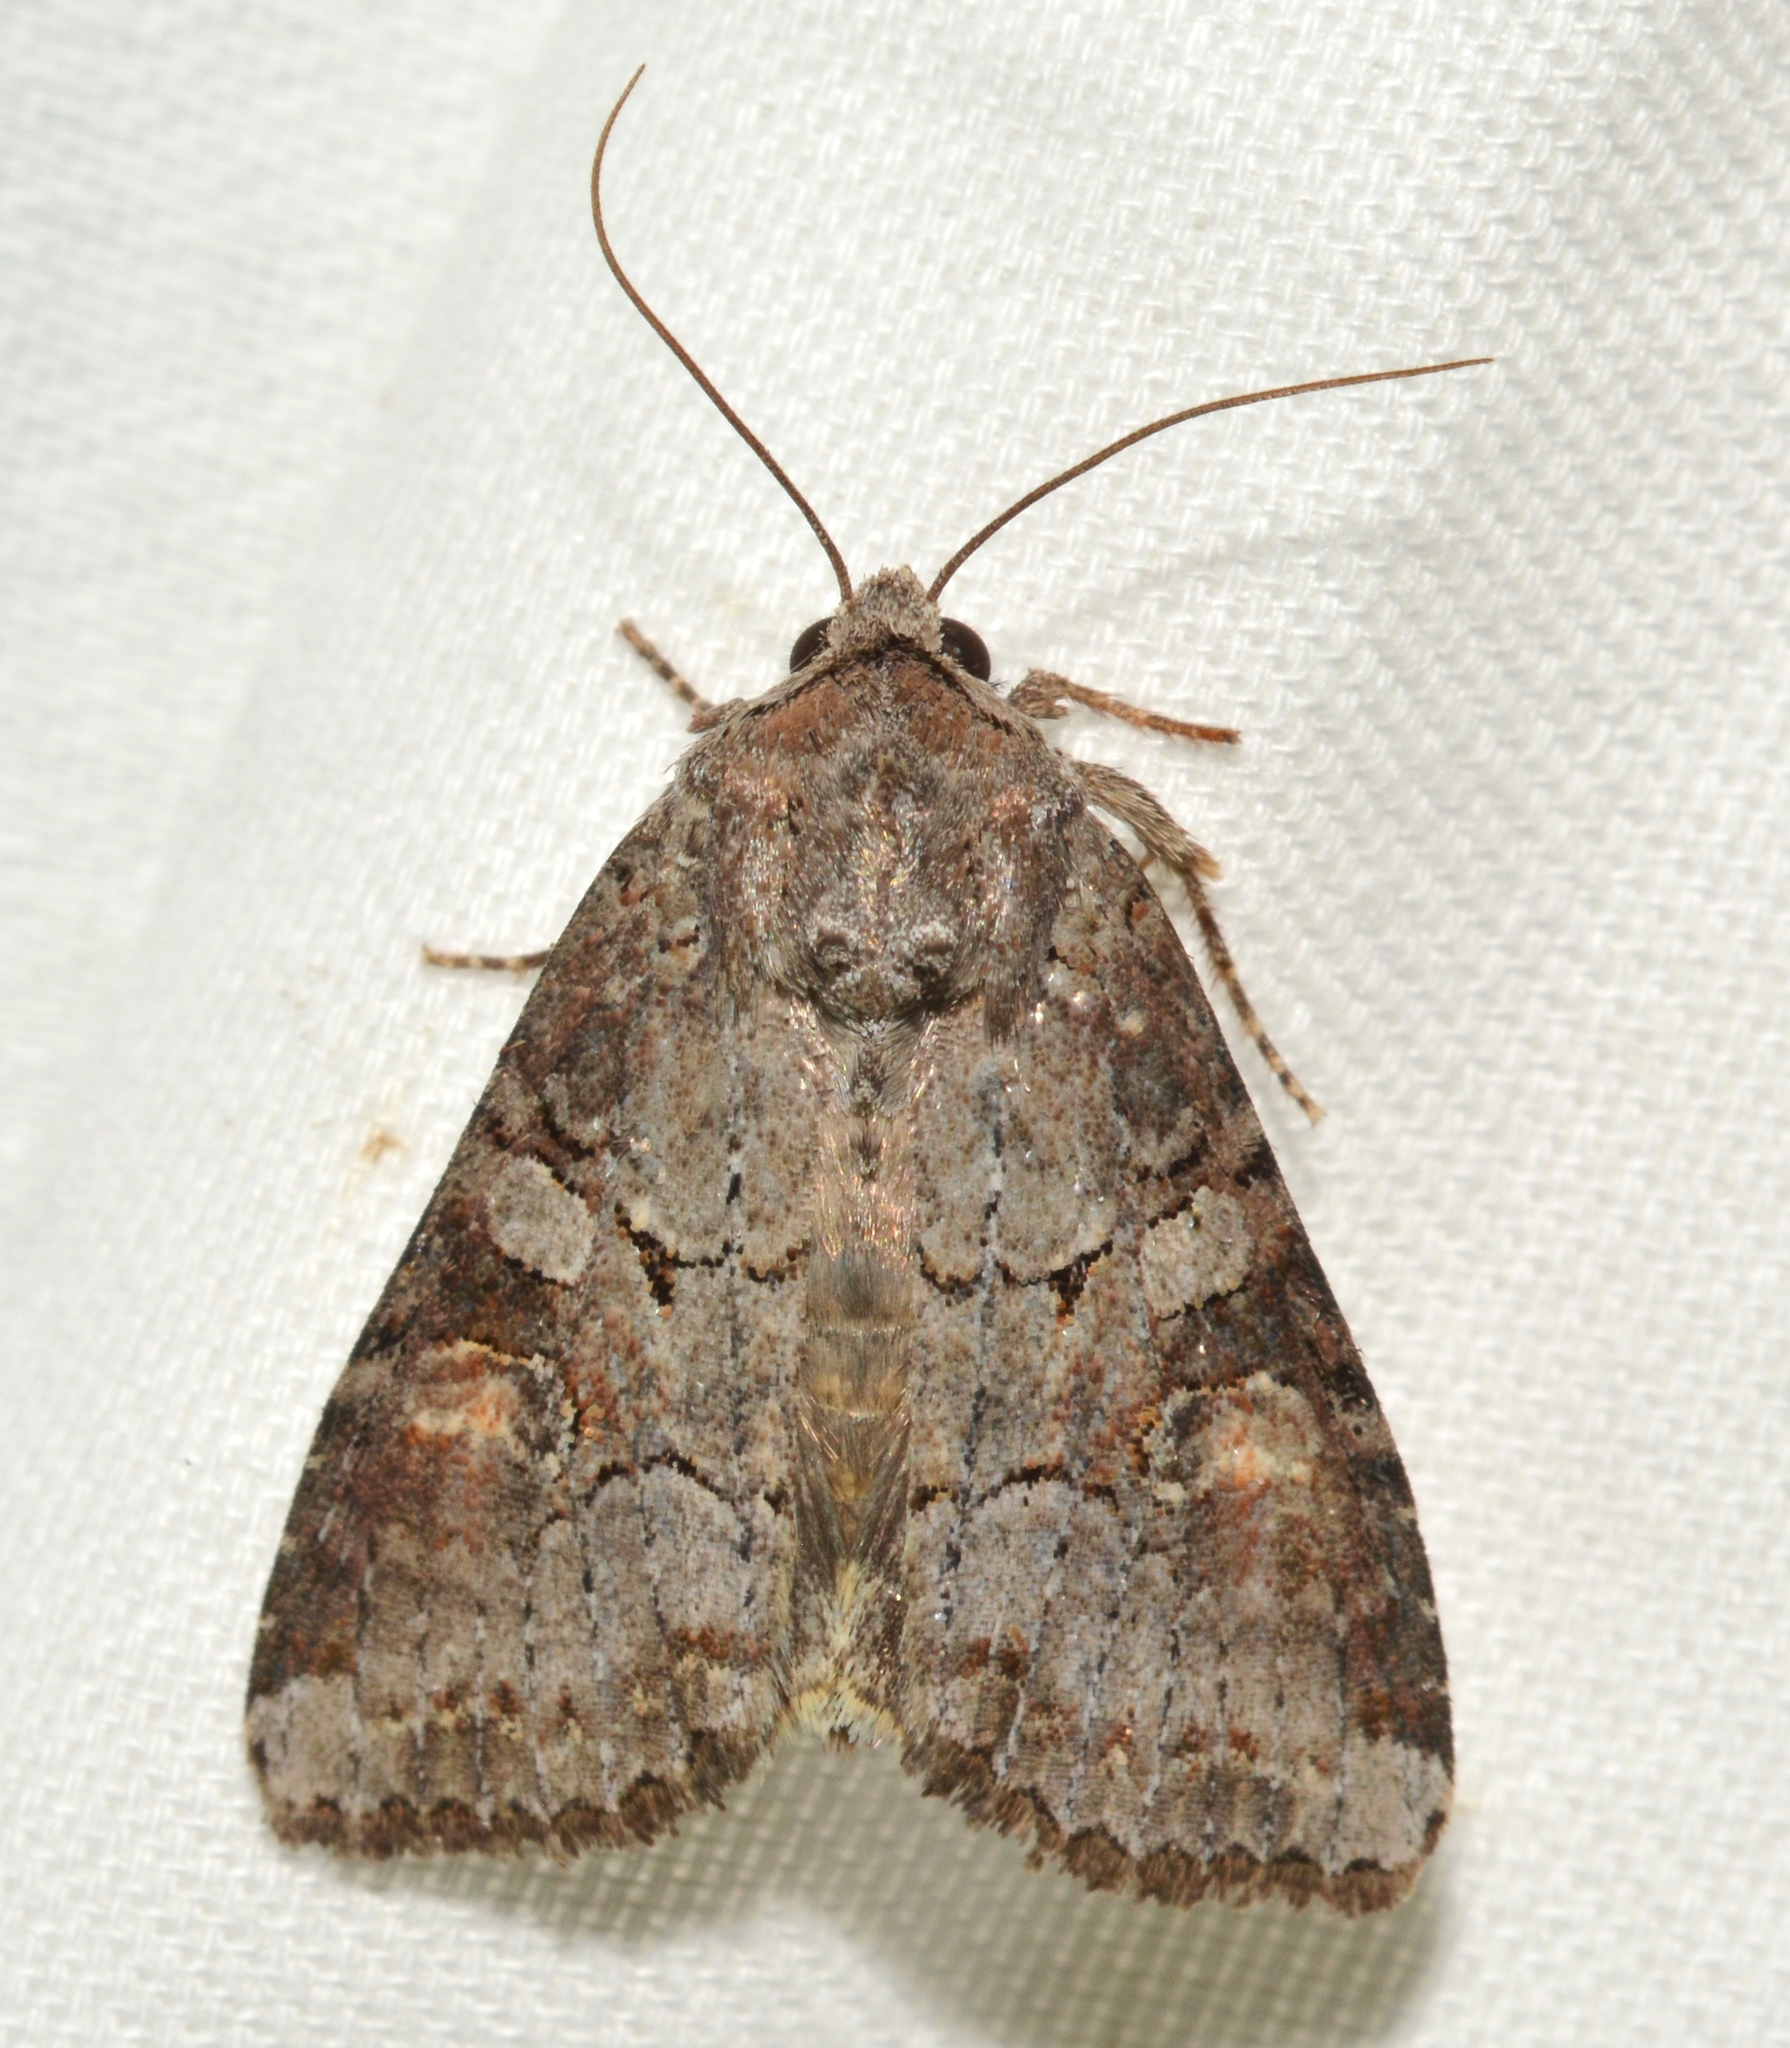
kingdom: Animalia
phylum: Arthropoda
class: Insecta
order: Lepidoptera
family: Noctuidae
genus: Trichordestra
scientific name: Trichordestra legitima
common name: Striped garden caterpillar
